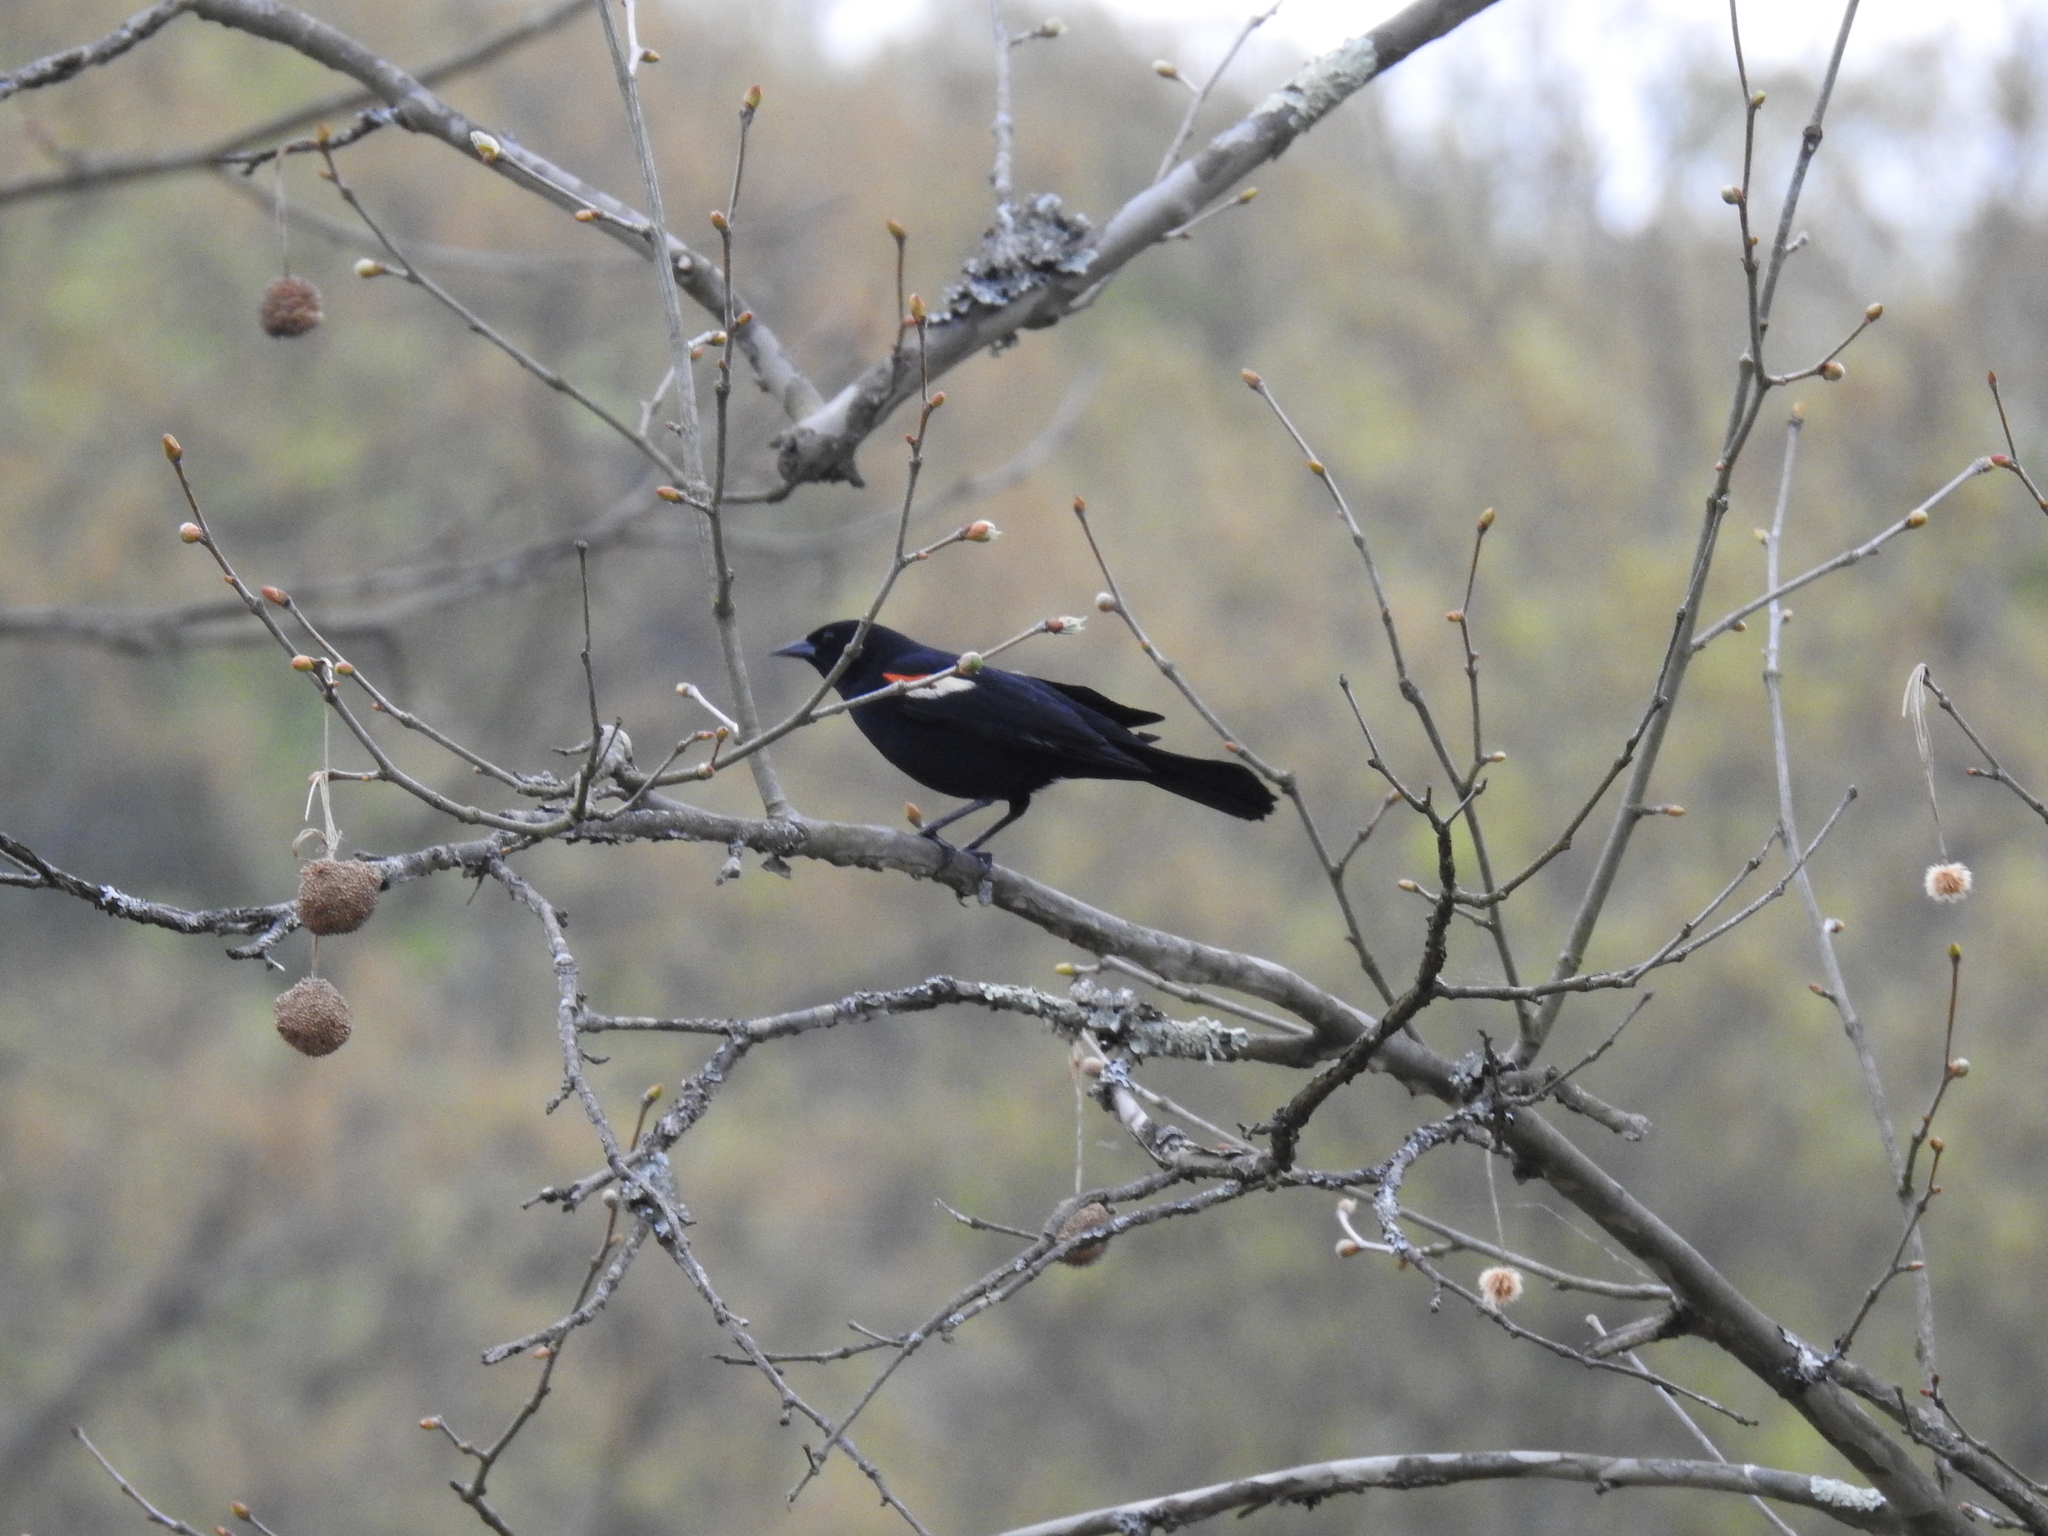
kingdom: Animalia
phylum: Chordata
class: Aves
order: Passeriformes
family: Icteridae
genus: Agelaius
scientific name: Agelaius phoeniceus
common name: Red-winged blackbird
